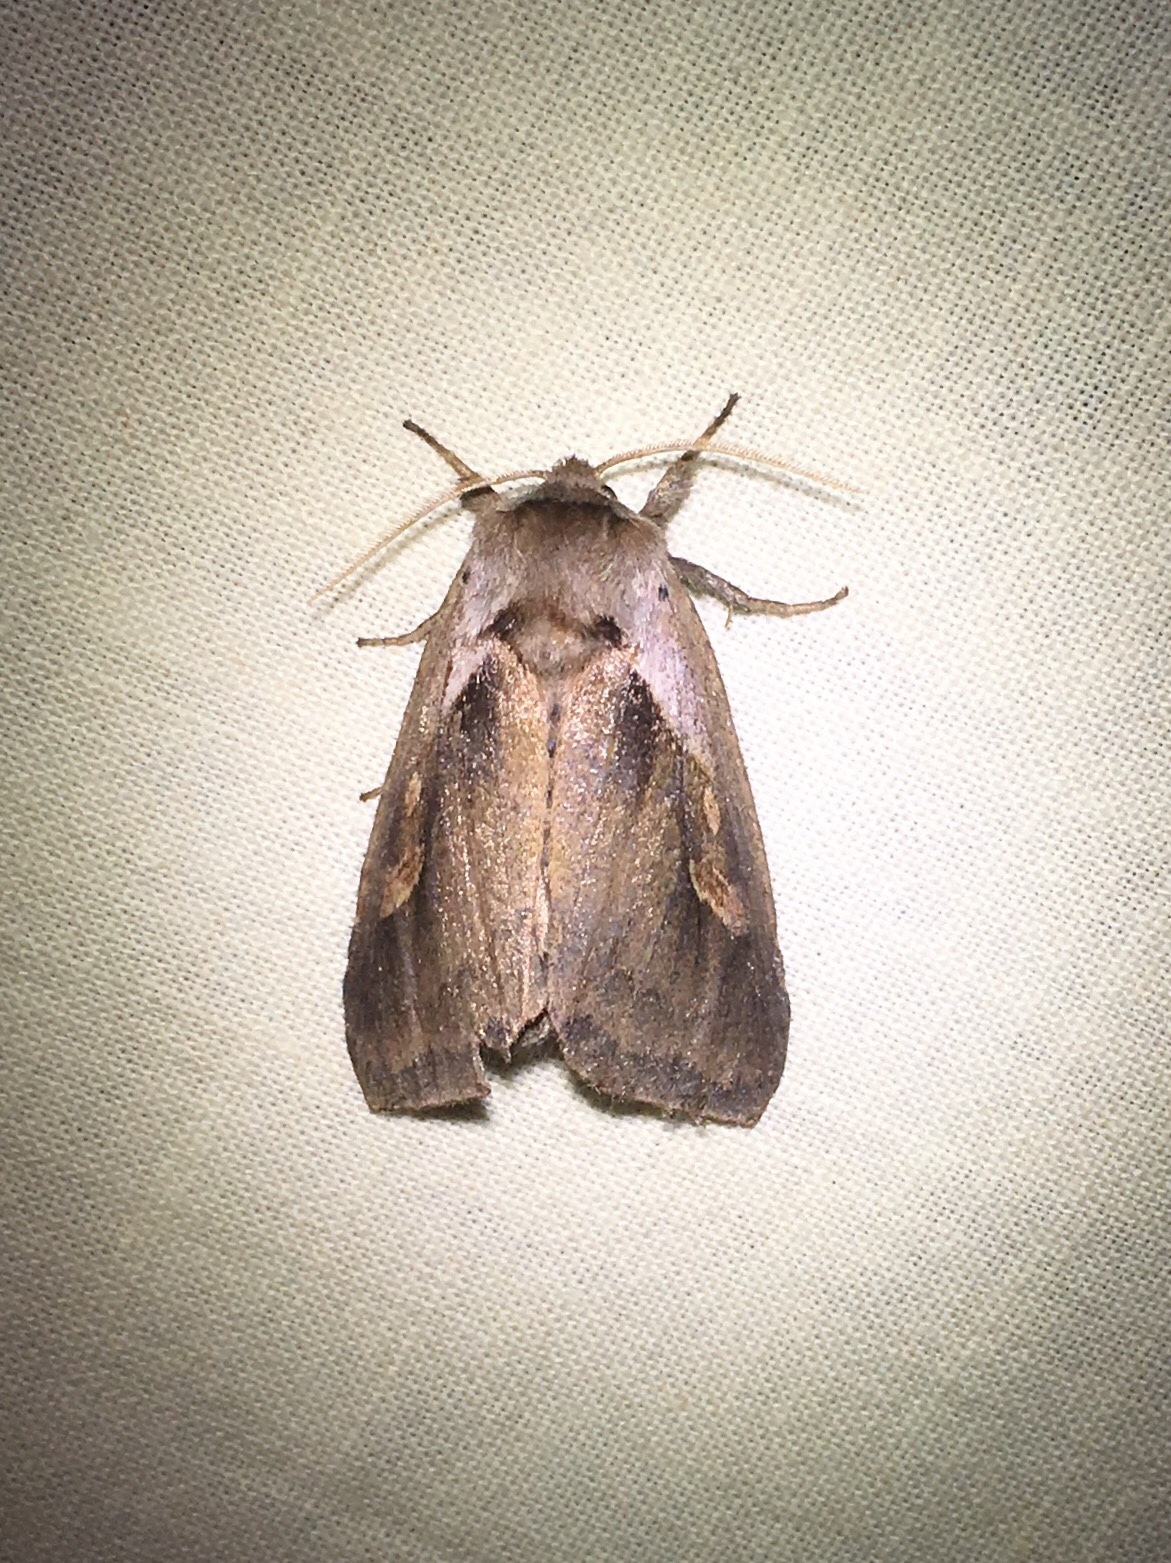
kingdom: Animalia
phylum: Arthropoda
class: Insecta
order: Lepidoptera
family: Noctuidae
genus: Bellura
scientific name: Bellura obliqua
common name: Cattail borer moth
